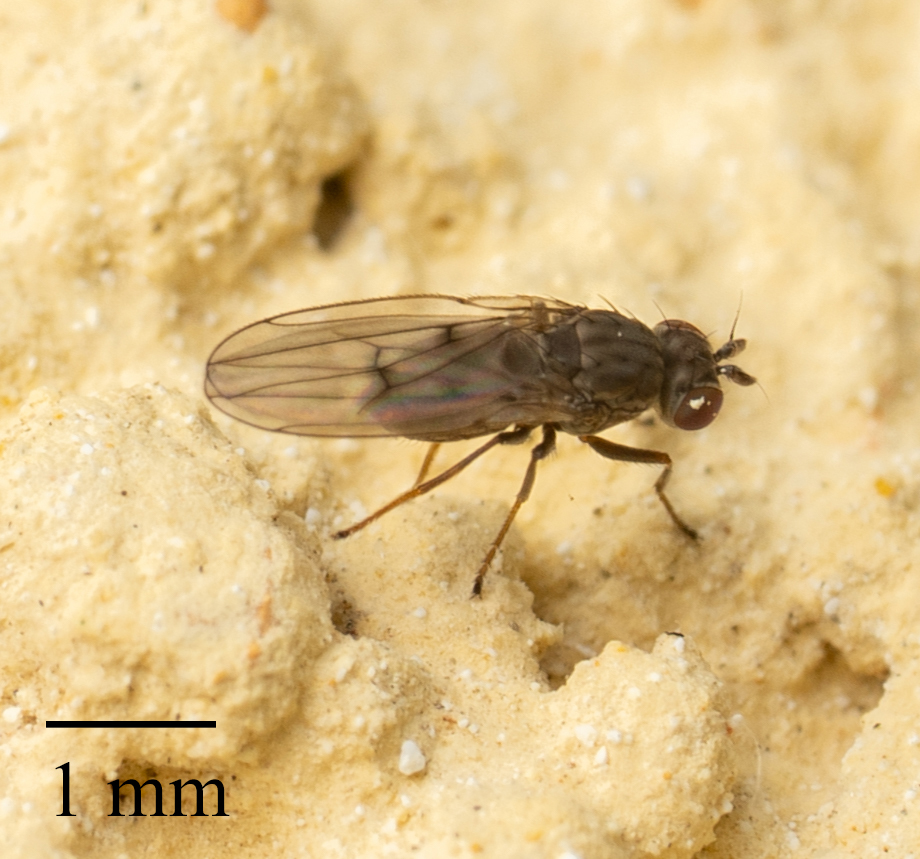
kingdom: Animalia
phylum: Arthropoda
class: Insecta
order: Diptera
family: Ephydridae
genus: Philygria
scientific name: Philygria debilis
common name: Brine fly
